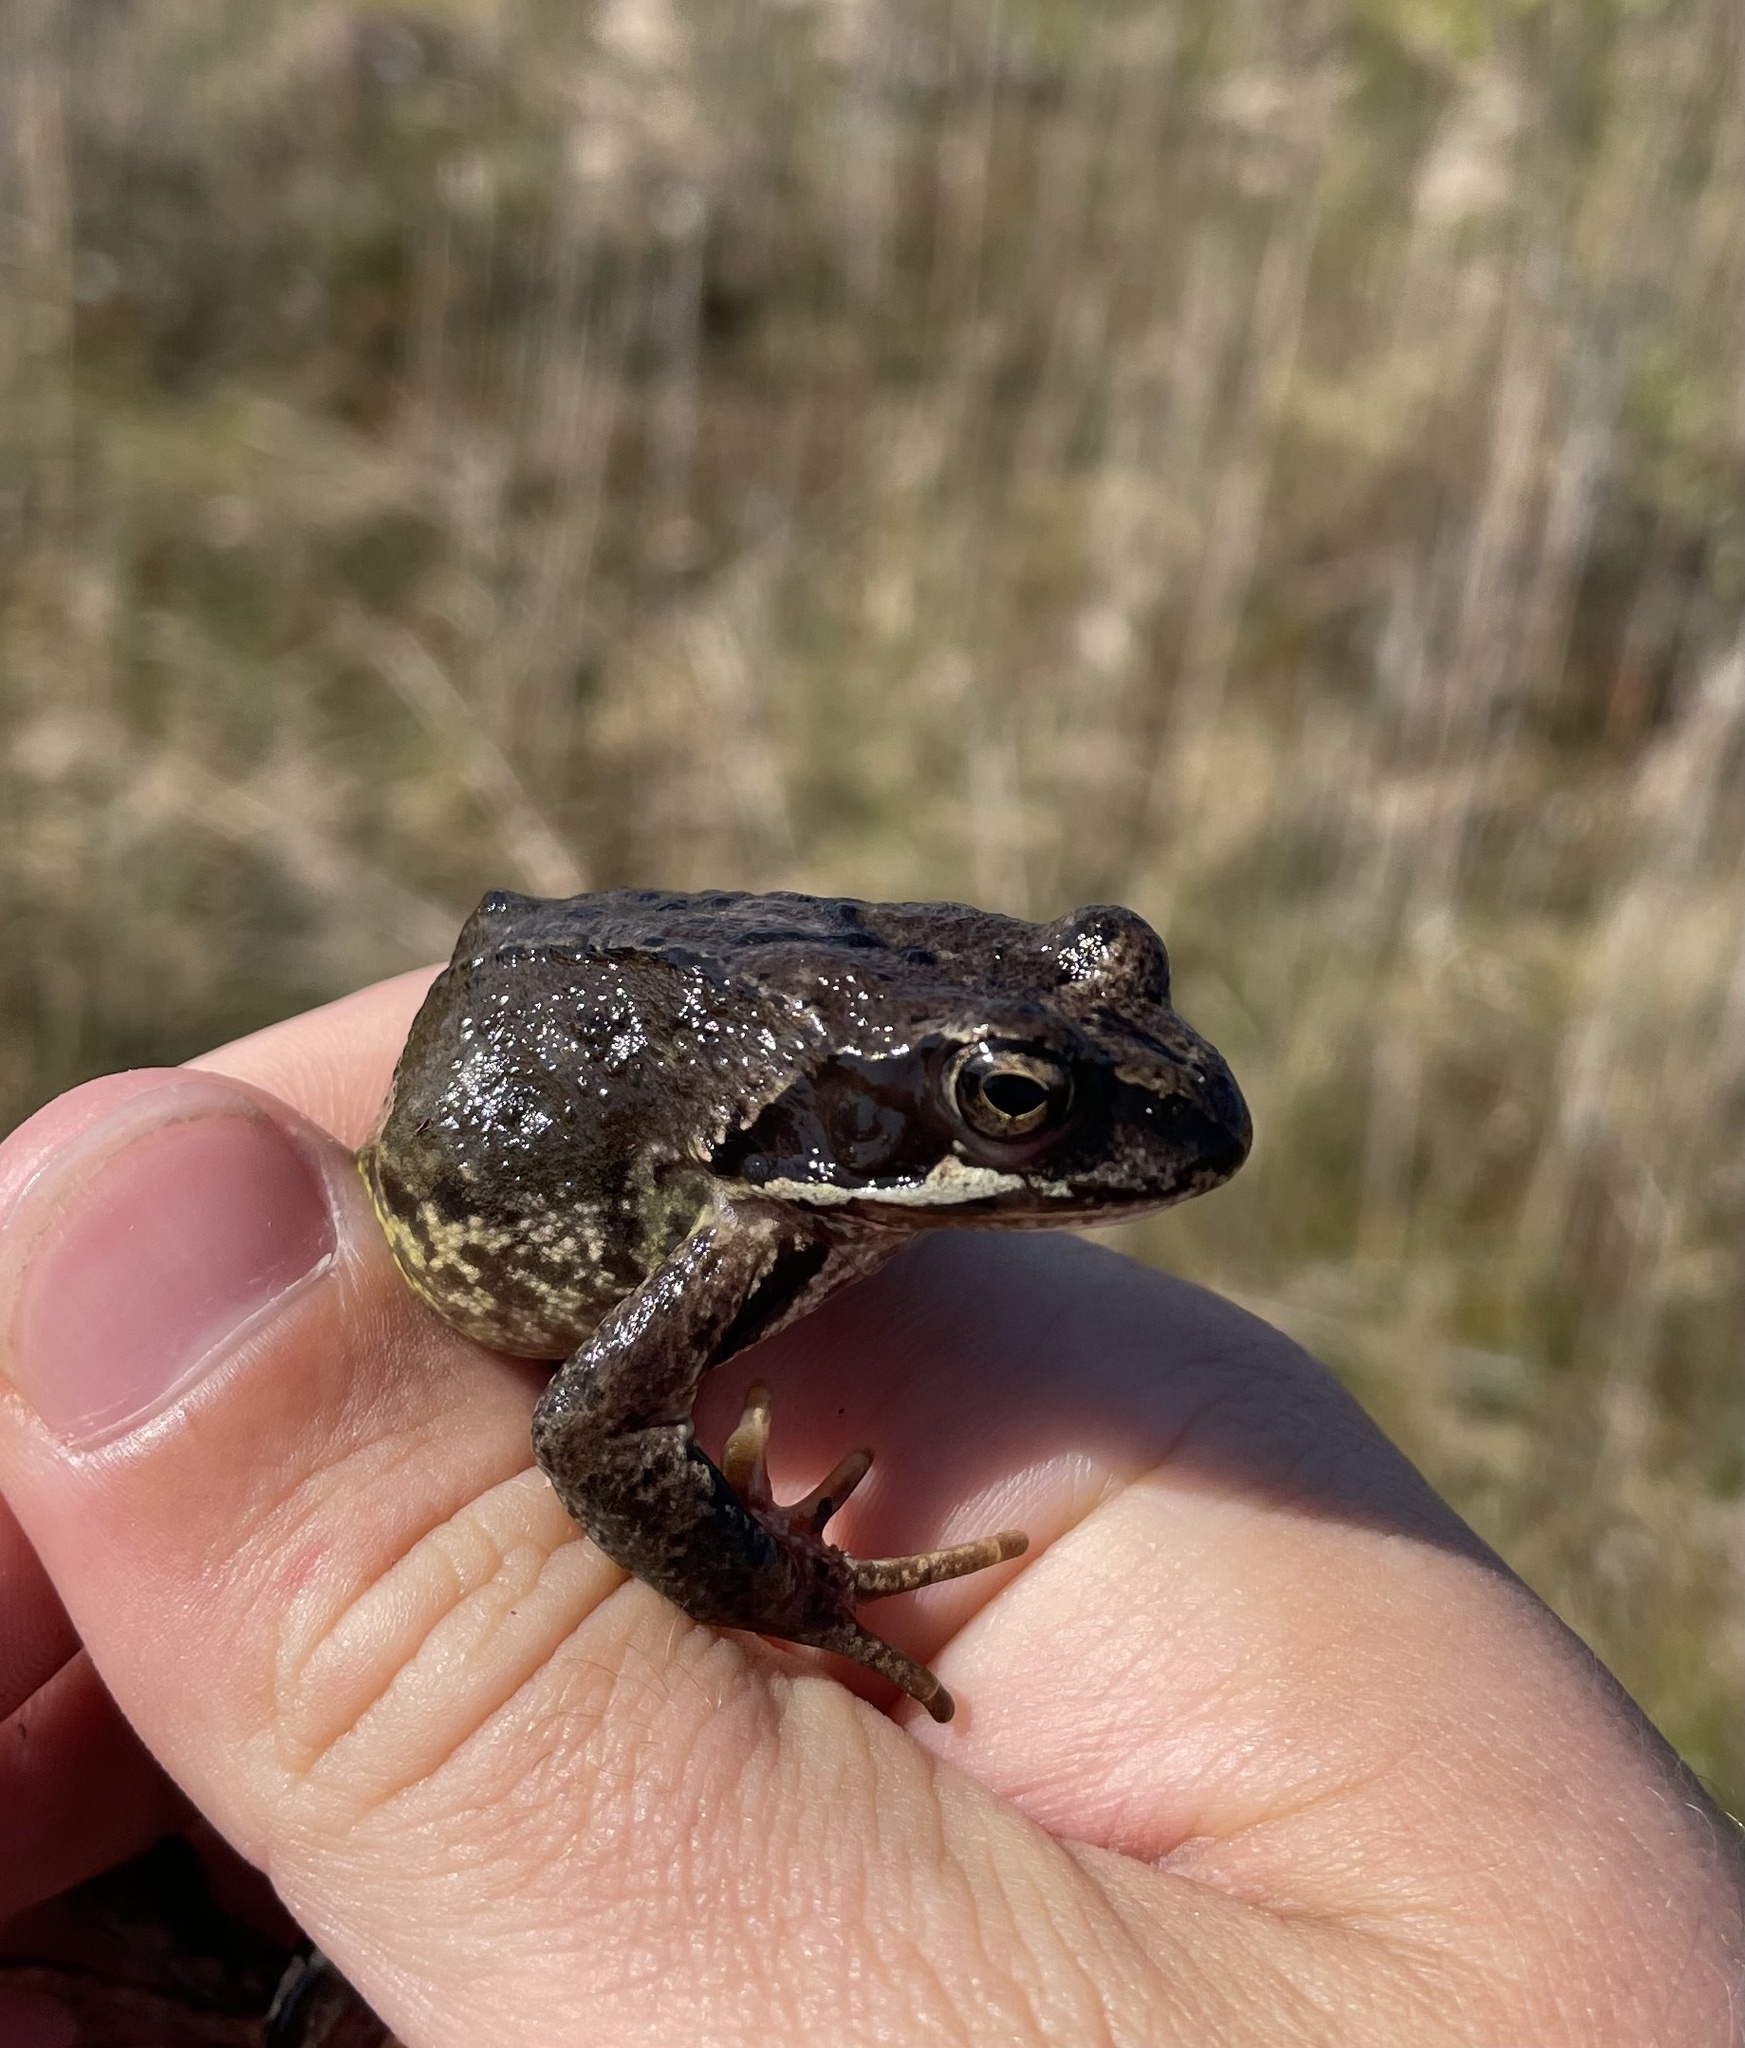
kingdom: Animalia
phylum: Chordata
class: Amphibia
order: Anura
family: Ranidae
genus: Rana
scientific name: Rana temporaria
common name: Common frog
